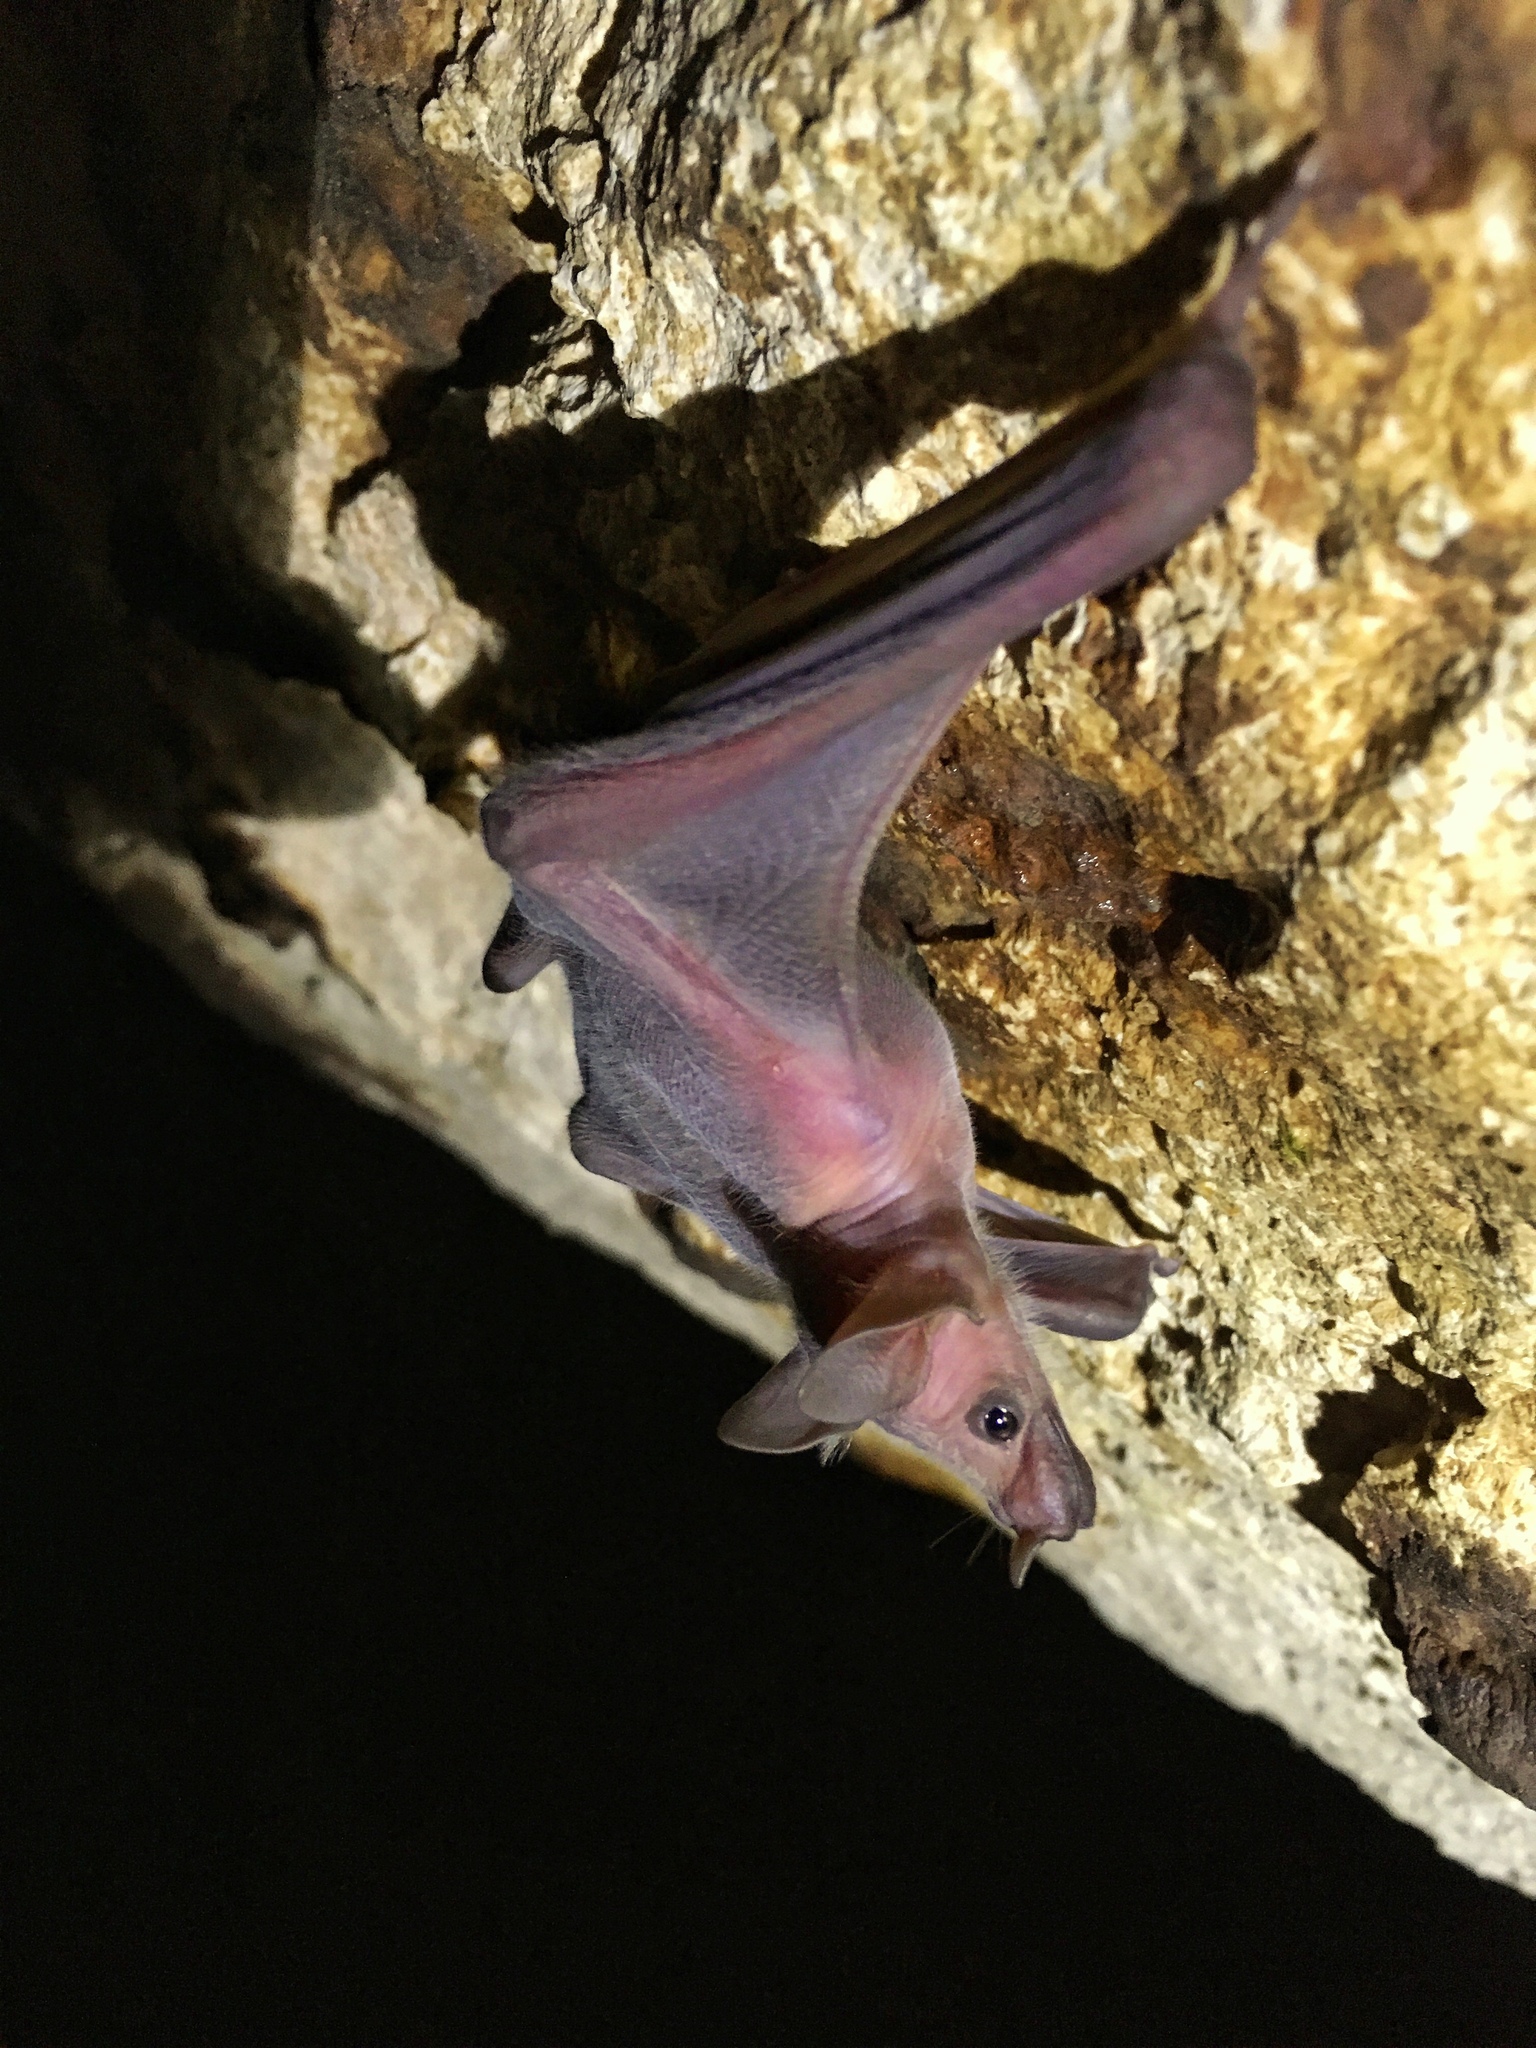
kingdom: Animalia
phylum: Chordata
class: Mammalia
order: Chiroptera
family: Phyllostomidae
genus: Leptonycteris
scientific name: Leptonycteris yerbabuenae
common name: Lesser long-nosed bat
